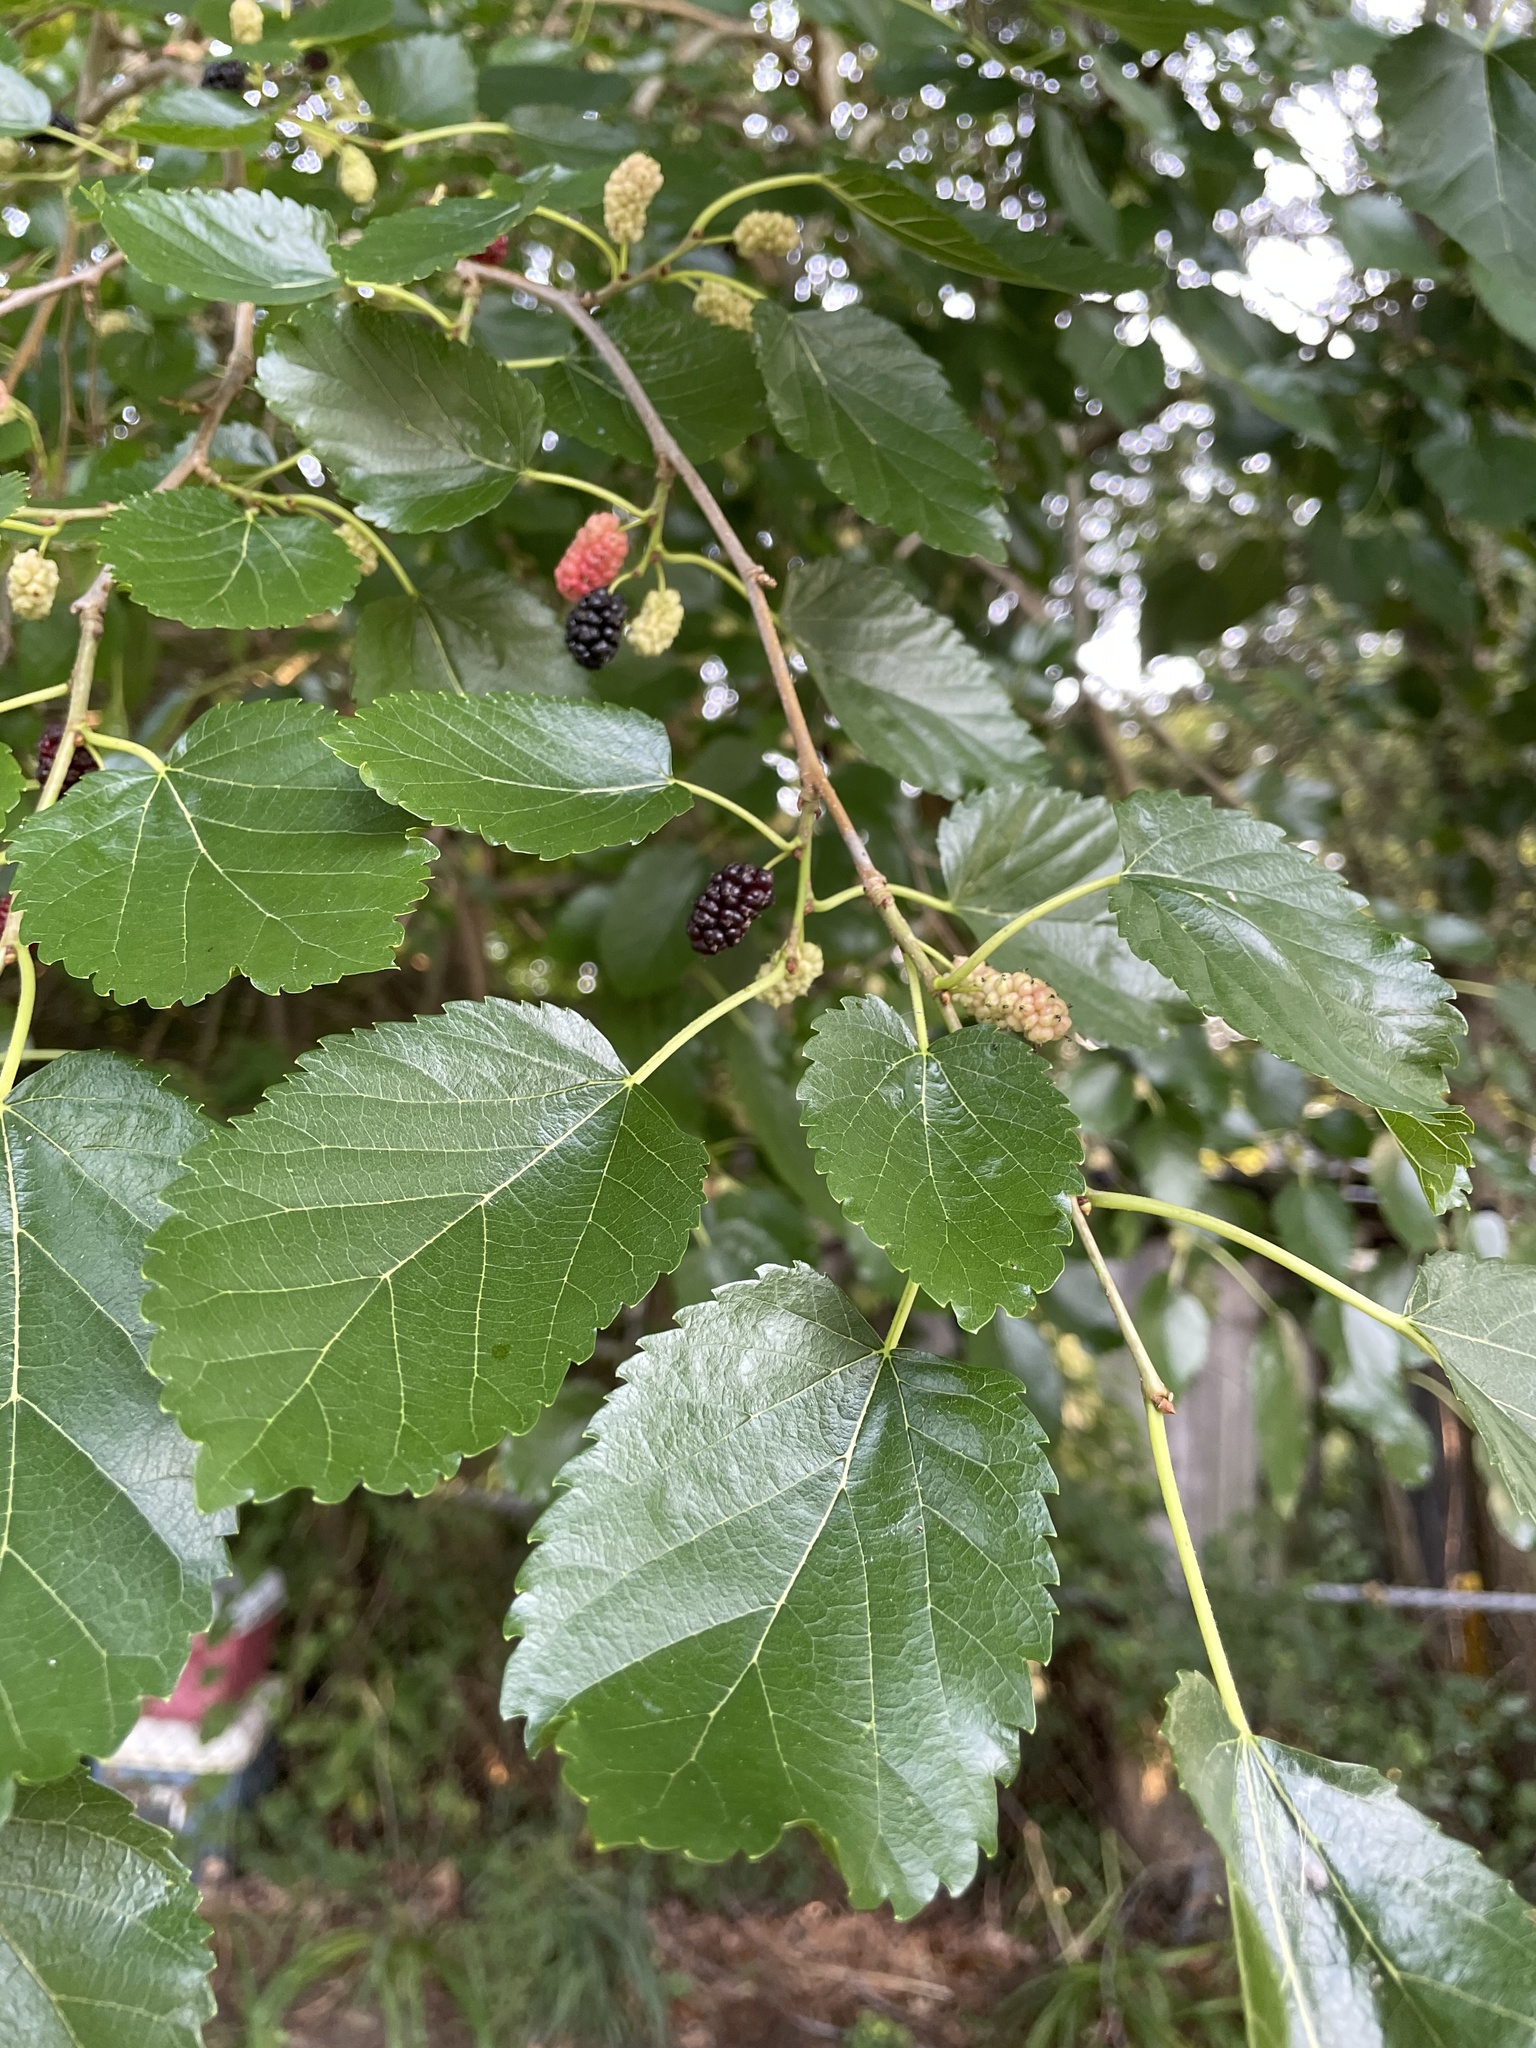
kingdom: Plantae
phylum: Tracheophyta
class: Magnoliopsida
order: Rosales
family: Moraceae
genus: Morus
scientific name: Morus alba
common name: White mulberry
